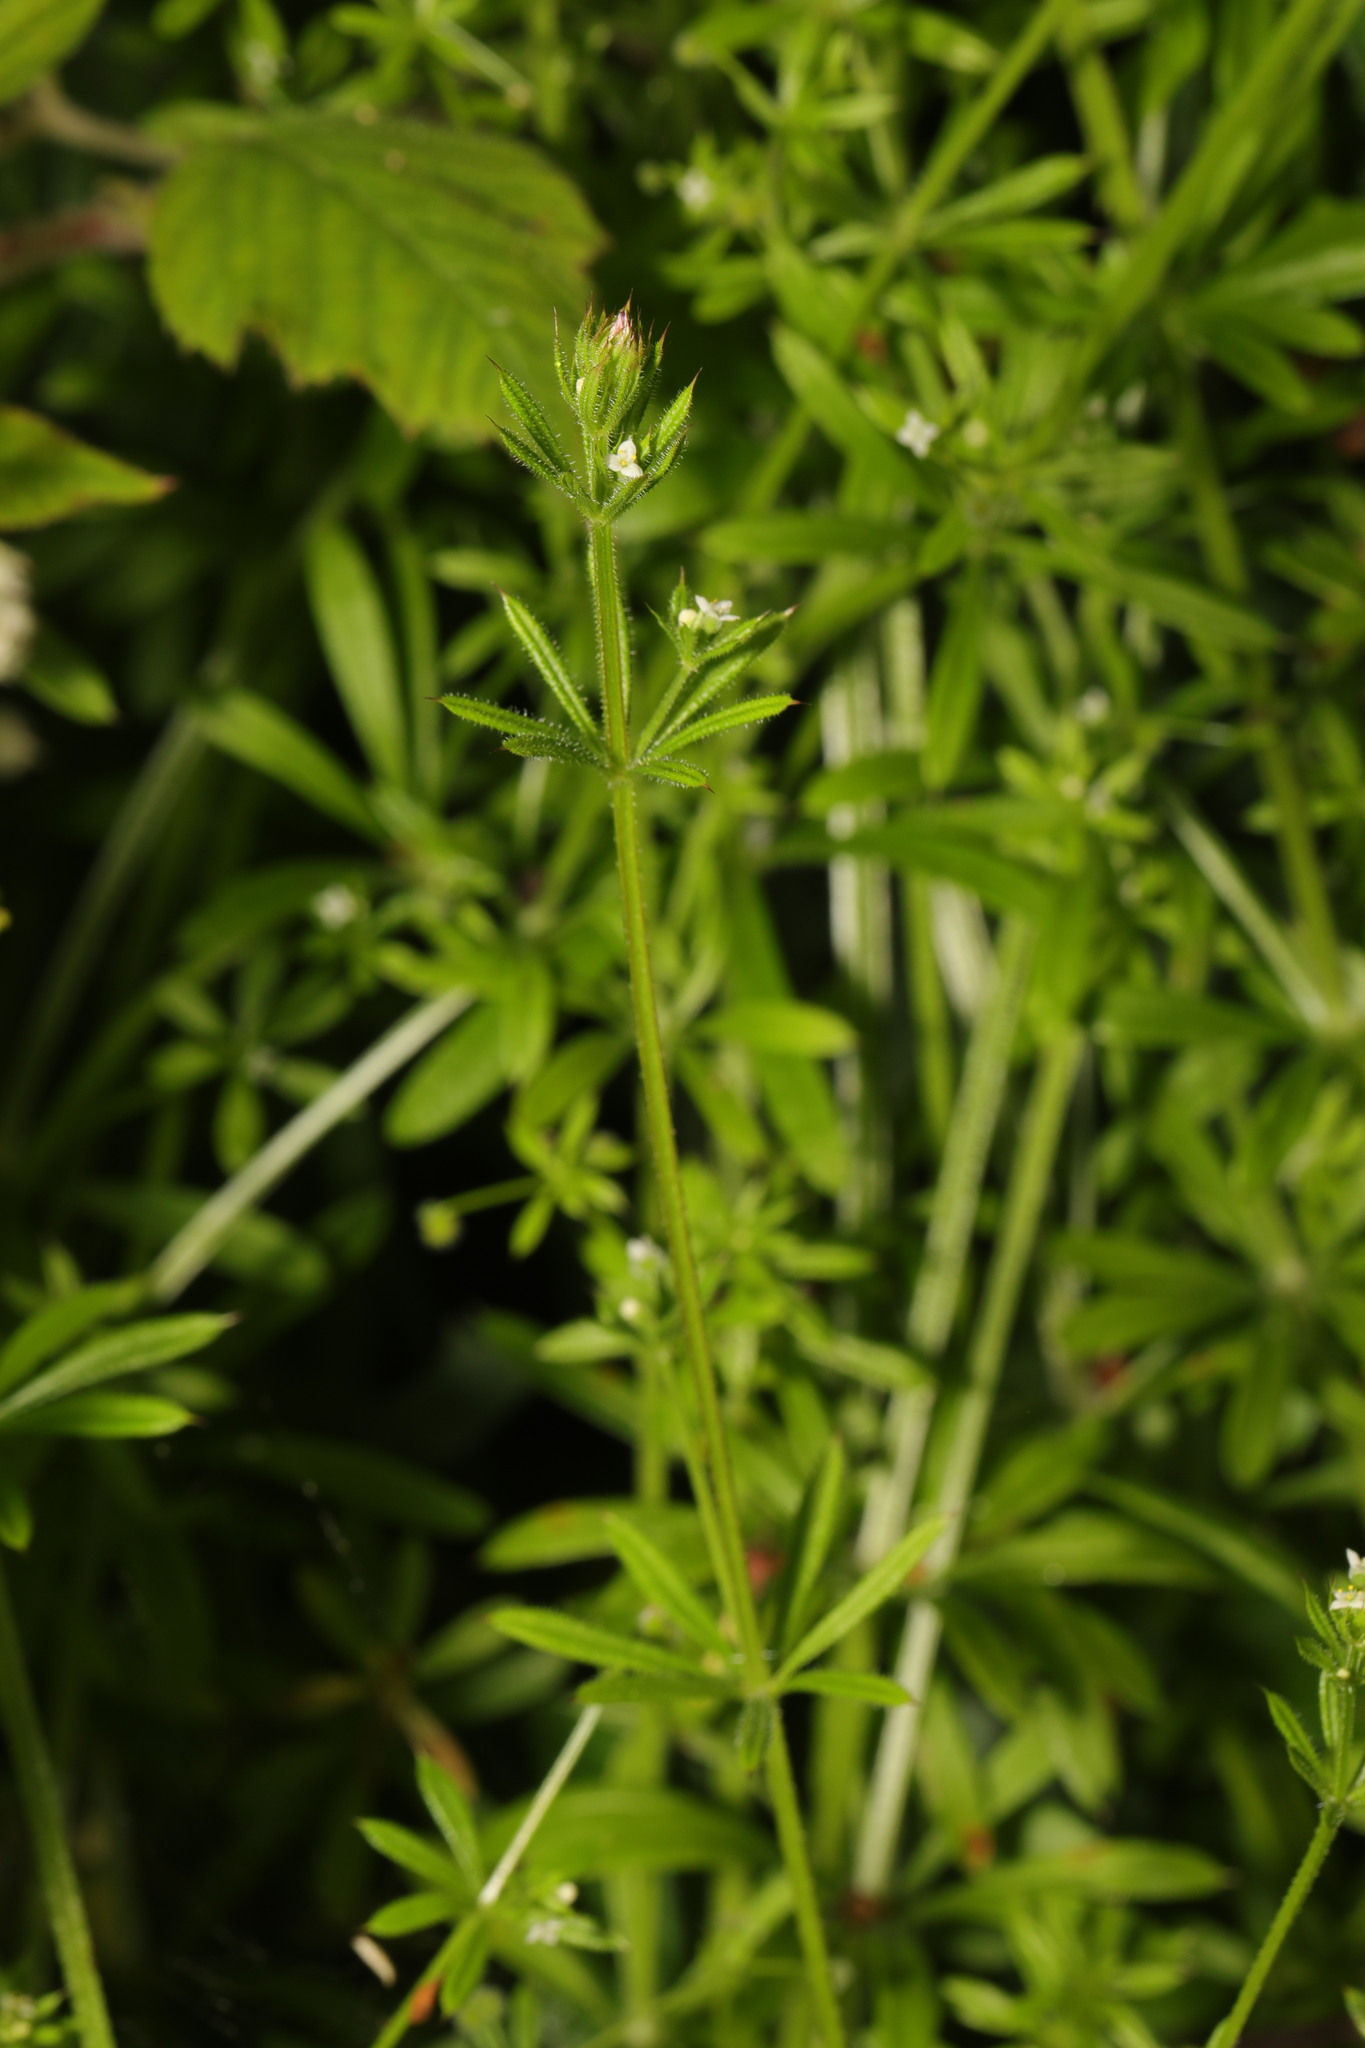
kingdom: Plantae
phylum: Tracheophyta
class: Magnoliopsida
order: Gentianales
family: Rubiaceae
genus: Galium
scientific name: Galium aparine
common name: Cleavers
